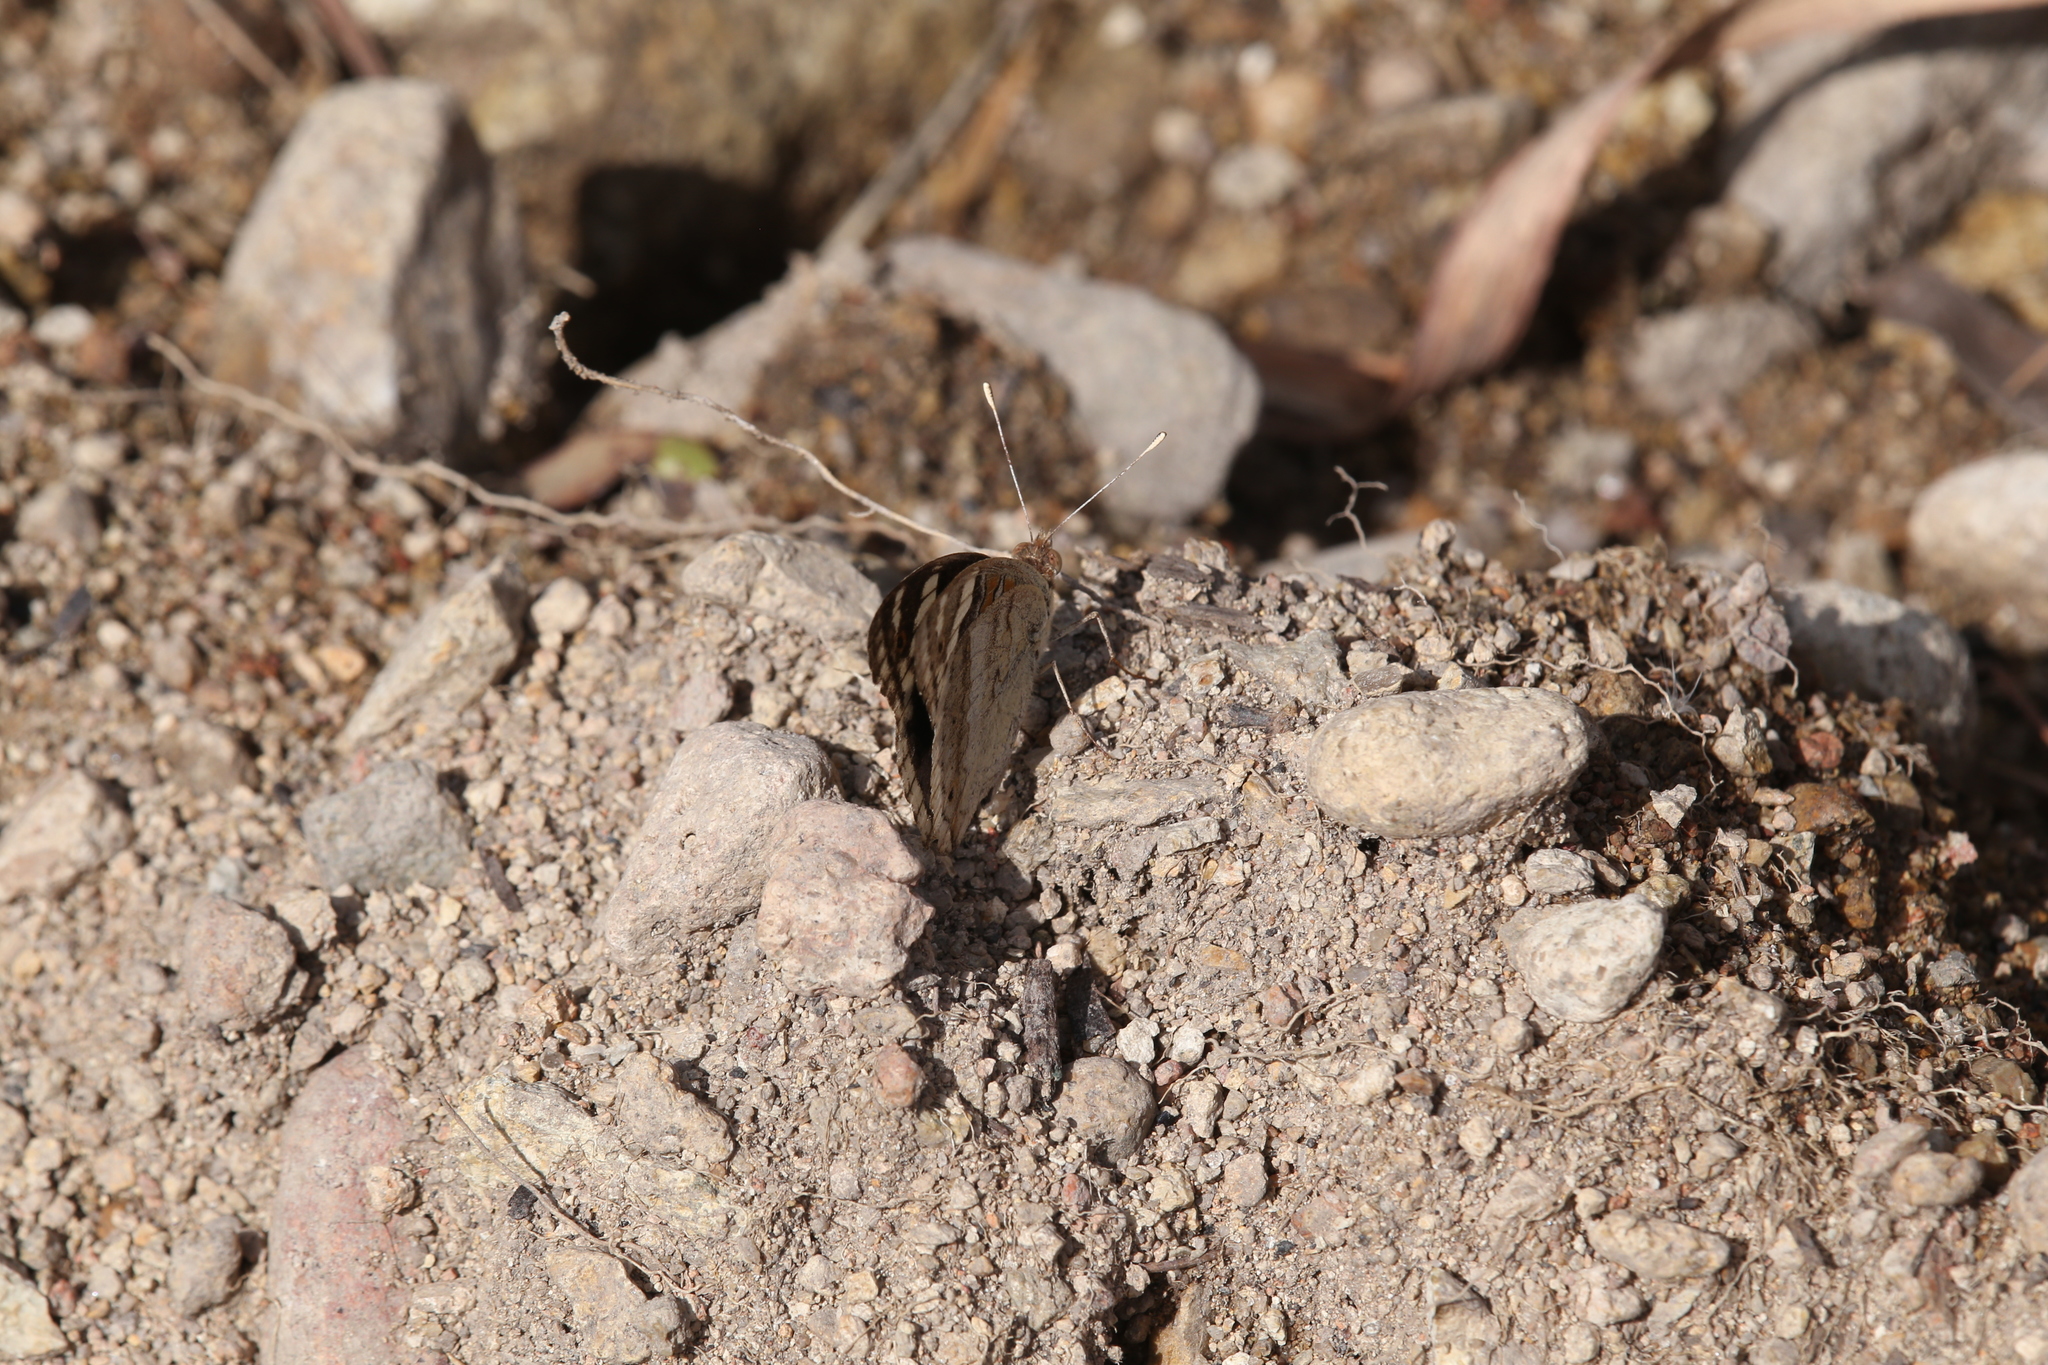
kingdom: Animalia
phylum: Arthropoda
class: Insecta
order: Lepidoptera
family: Nymphalidae
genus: Junonia
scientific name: Junonia orithya
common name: Blue pansy
